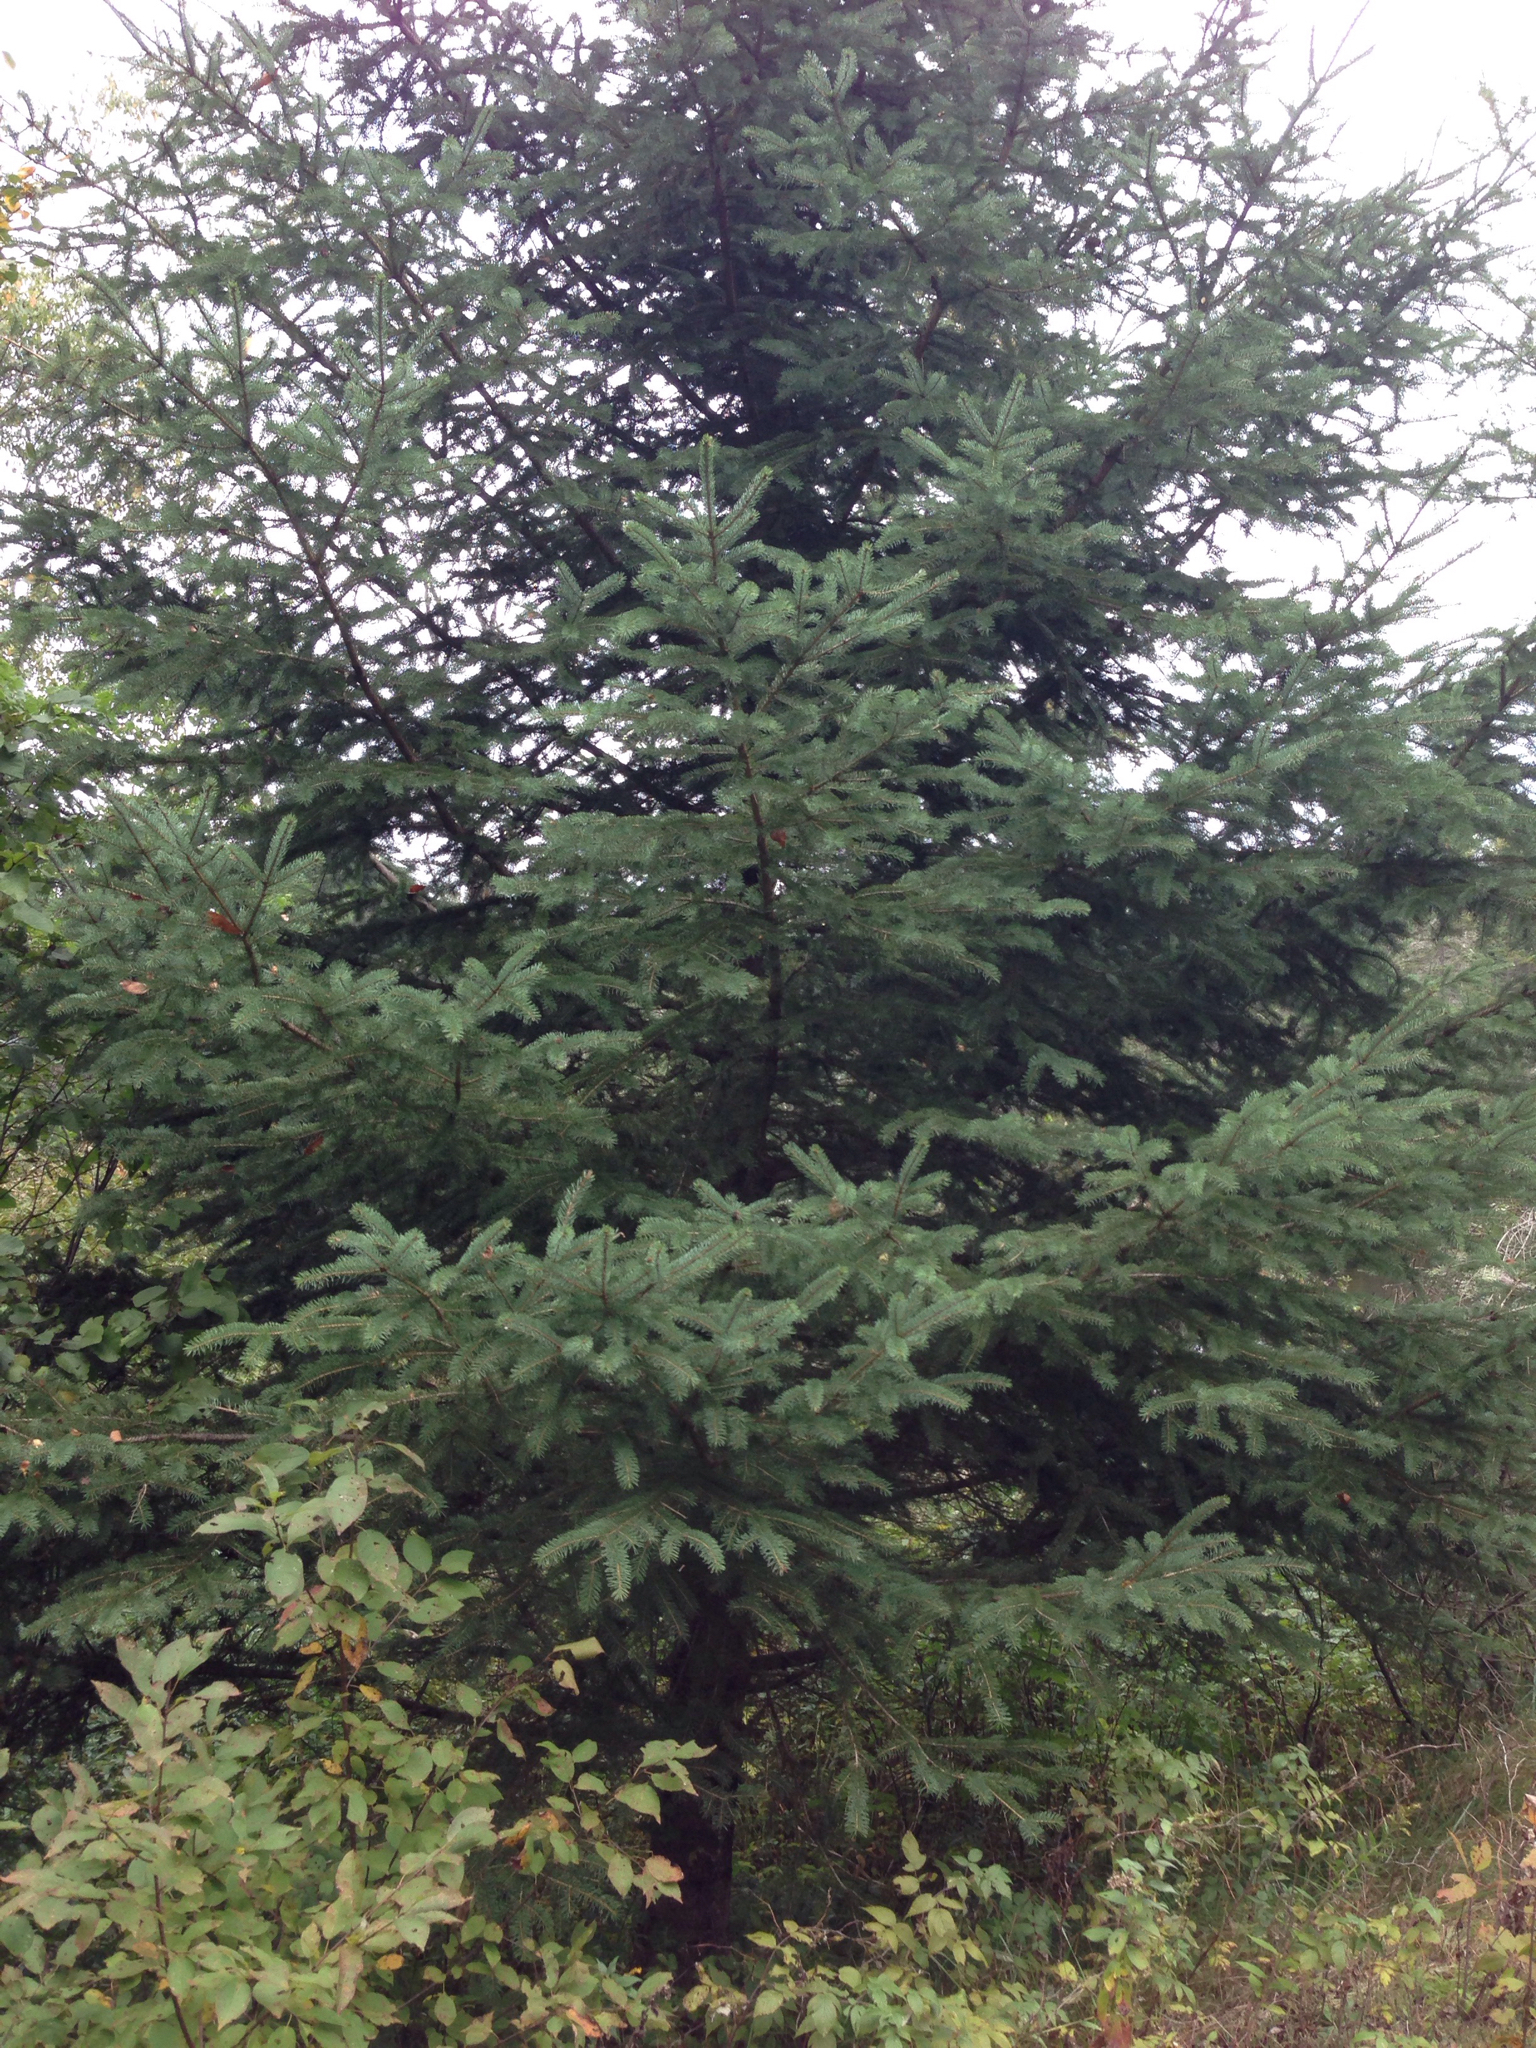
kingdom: Plantae
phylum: Tracheophyta
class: Pinopsida
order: Pinales
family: Pinaceae
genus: Picea
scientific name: Picea glauca
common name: White spruce
